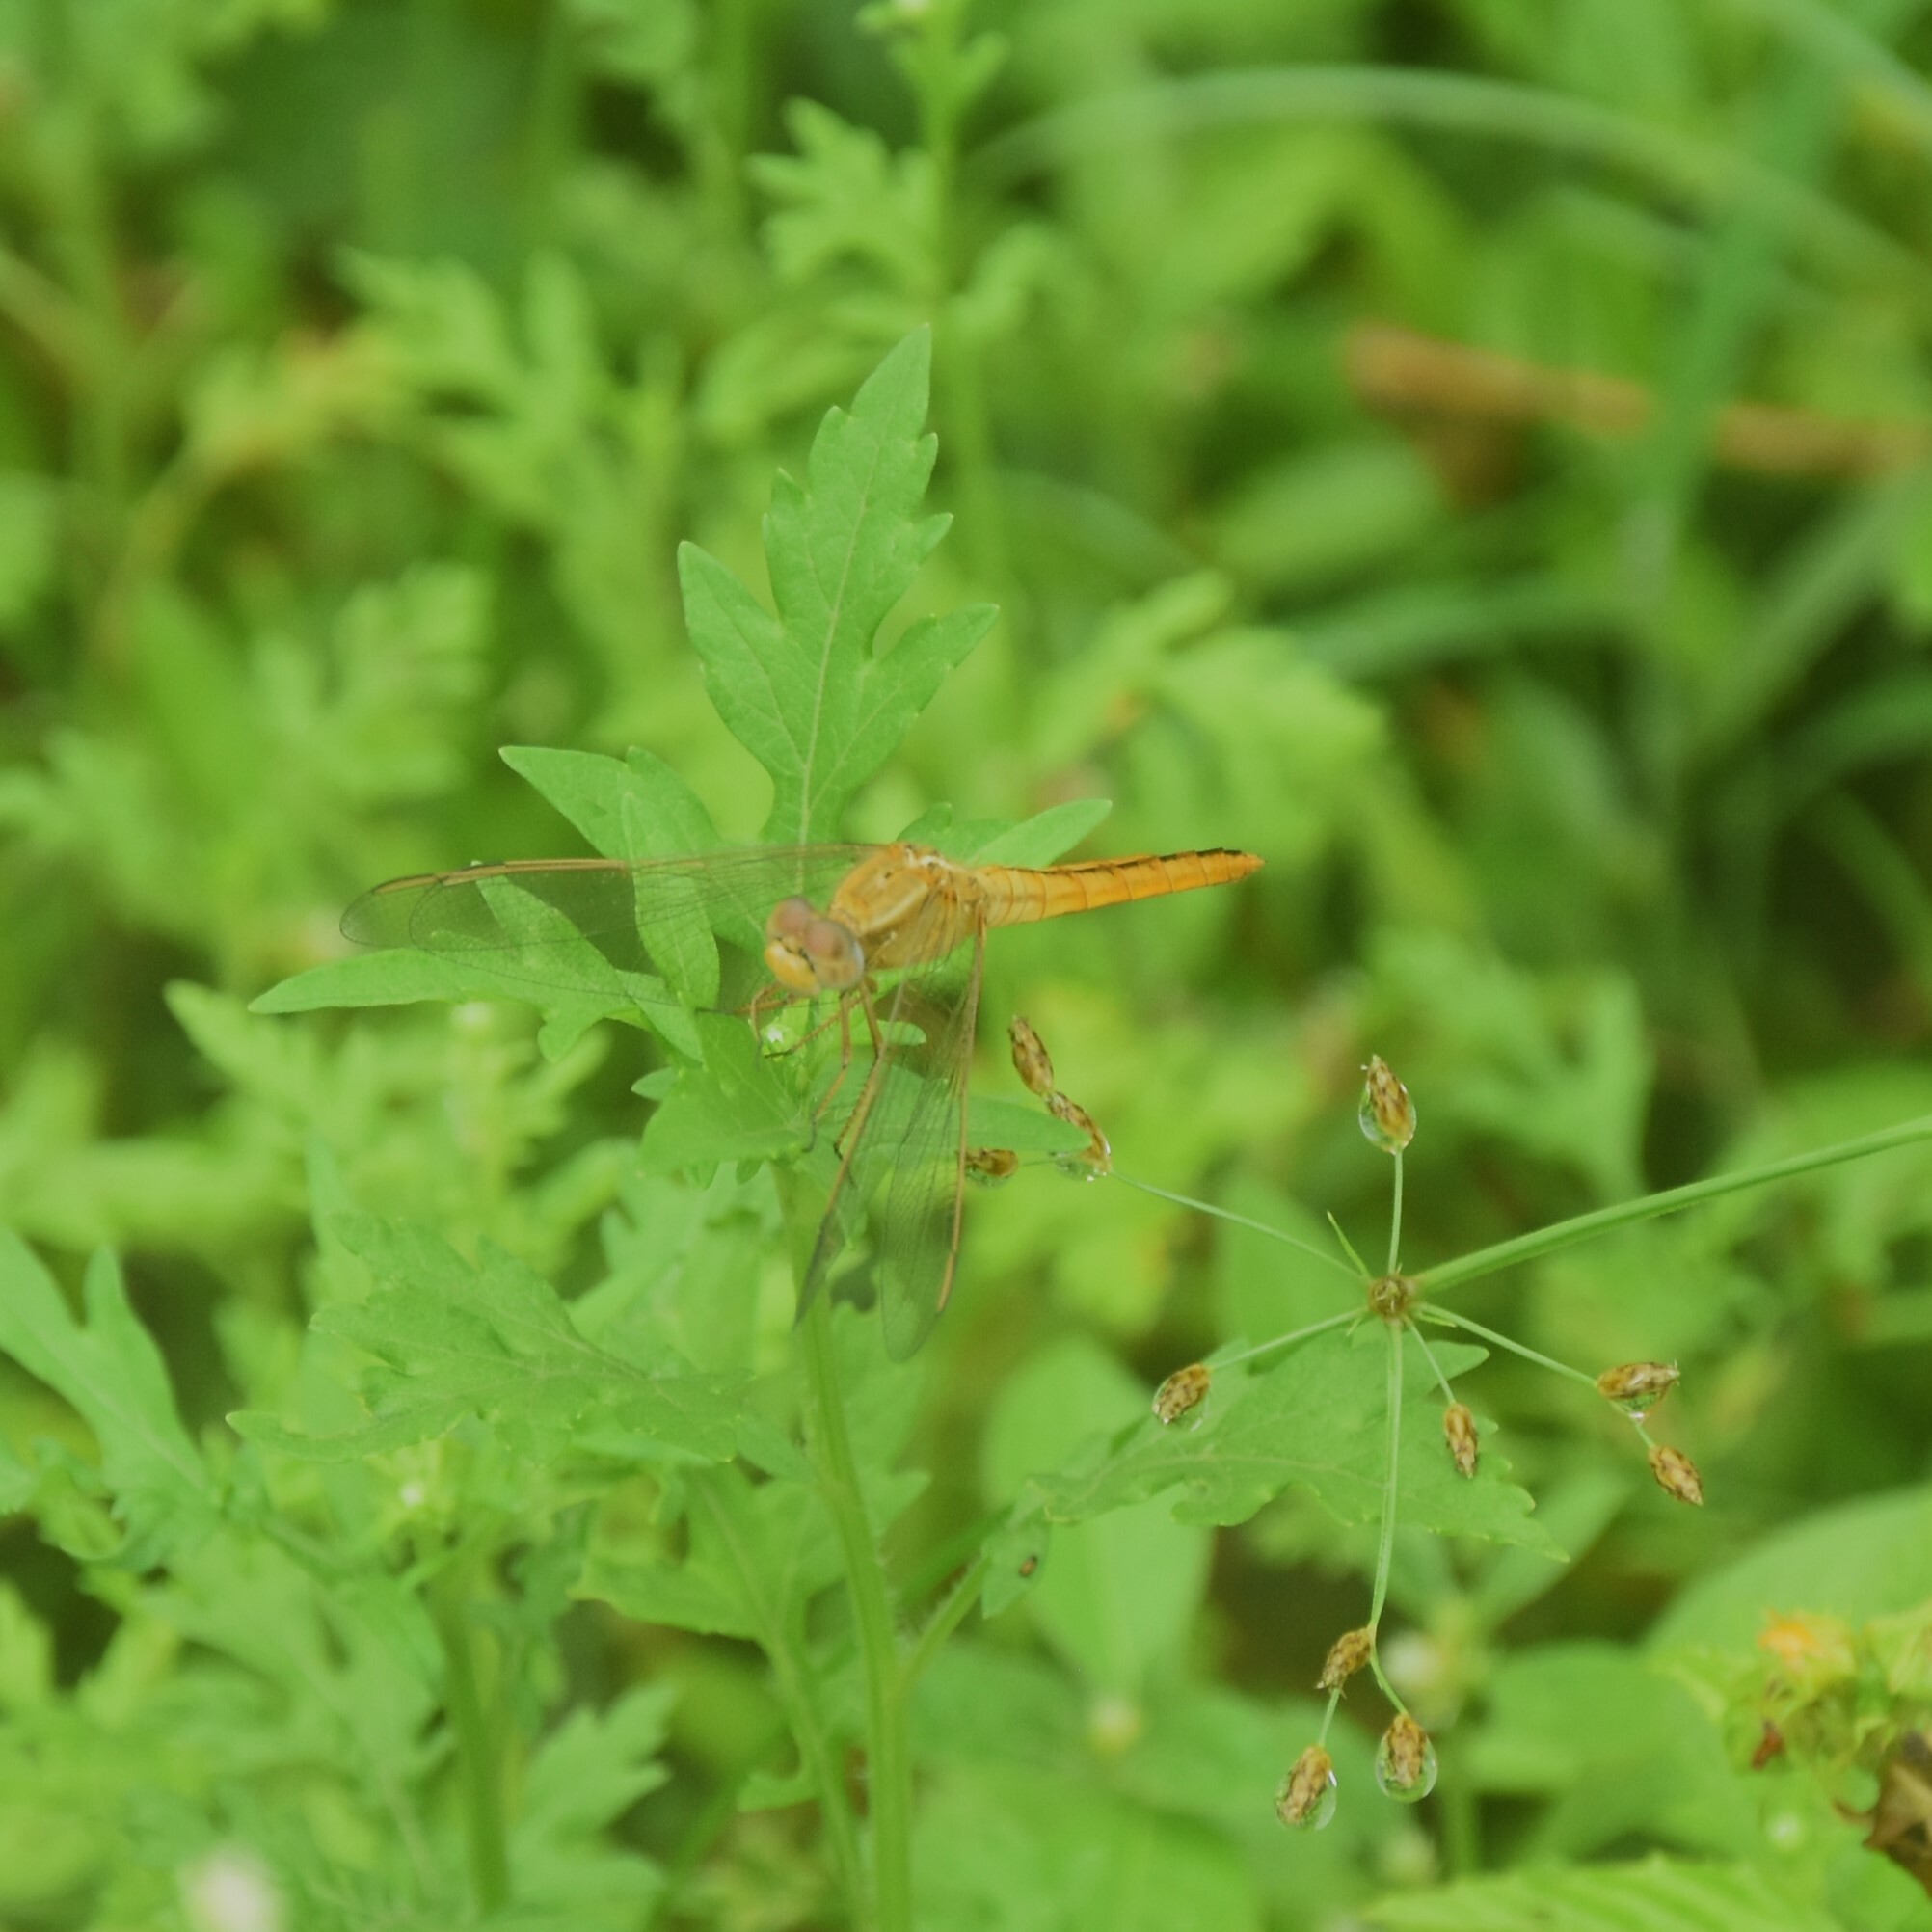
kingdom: Animalia
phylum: Arthropoda
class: Insecta
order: Odonata
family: Libellulidae
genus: Crocothemis
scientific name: Crocothemis servilia
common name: Scarlet skimmer
